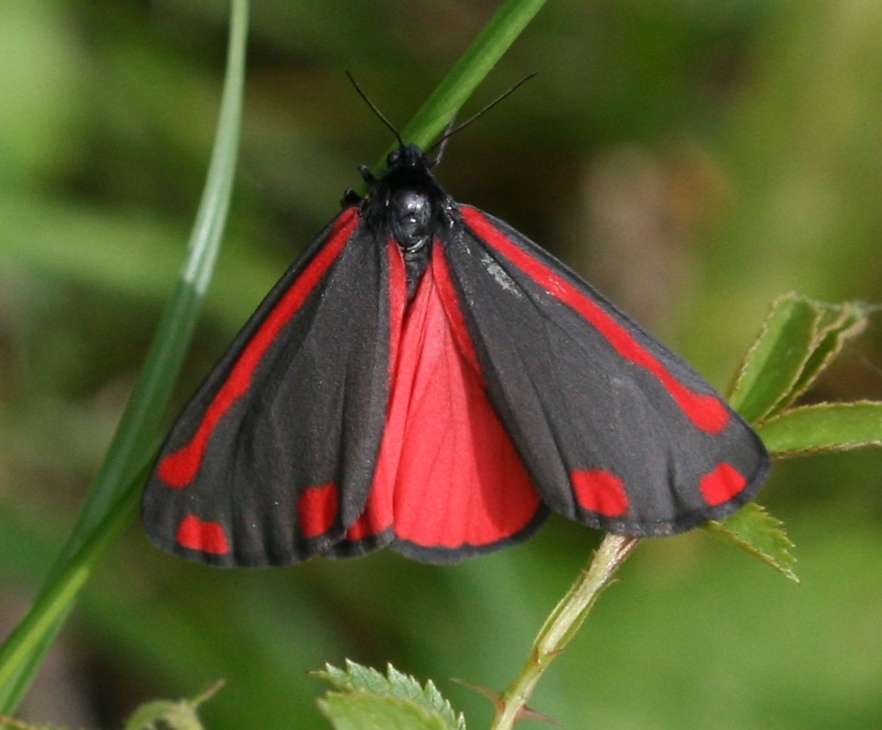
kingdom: Animalia
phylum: Arthropoda
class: Insecta
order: Lepidoptera
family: Erebidae
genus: Tyria
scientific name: Tyria jacobaeae
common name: Cinnabar
